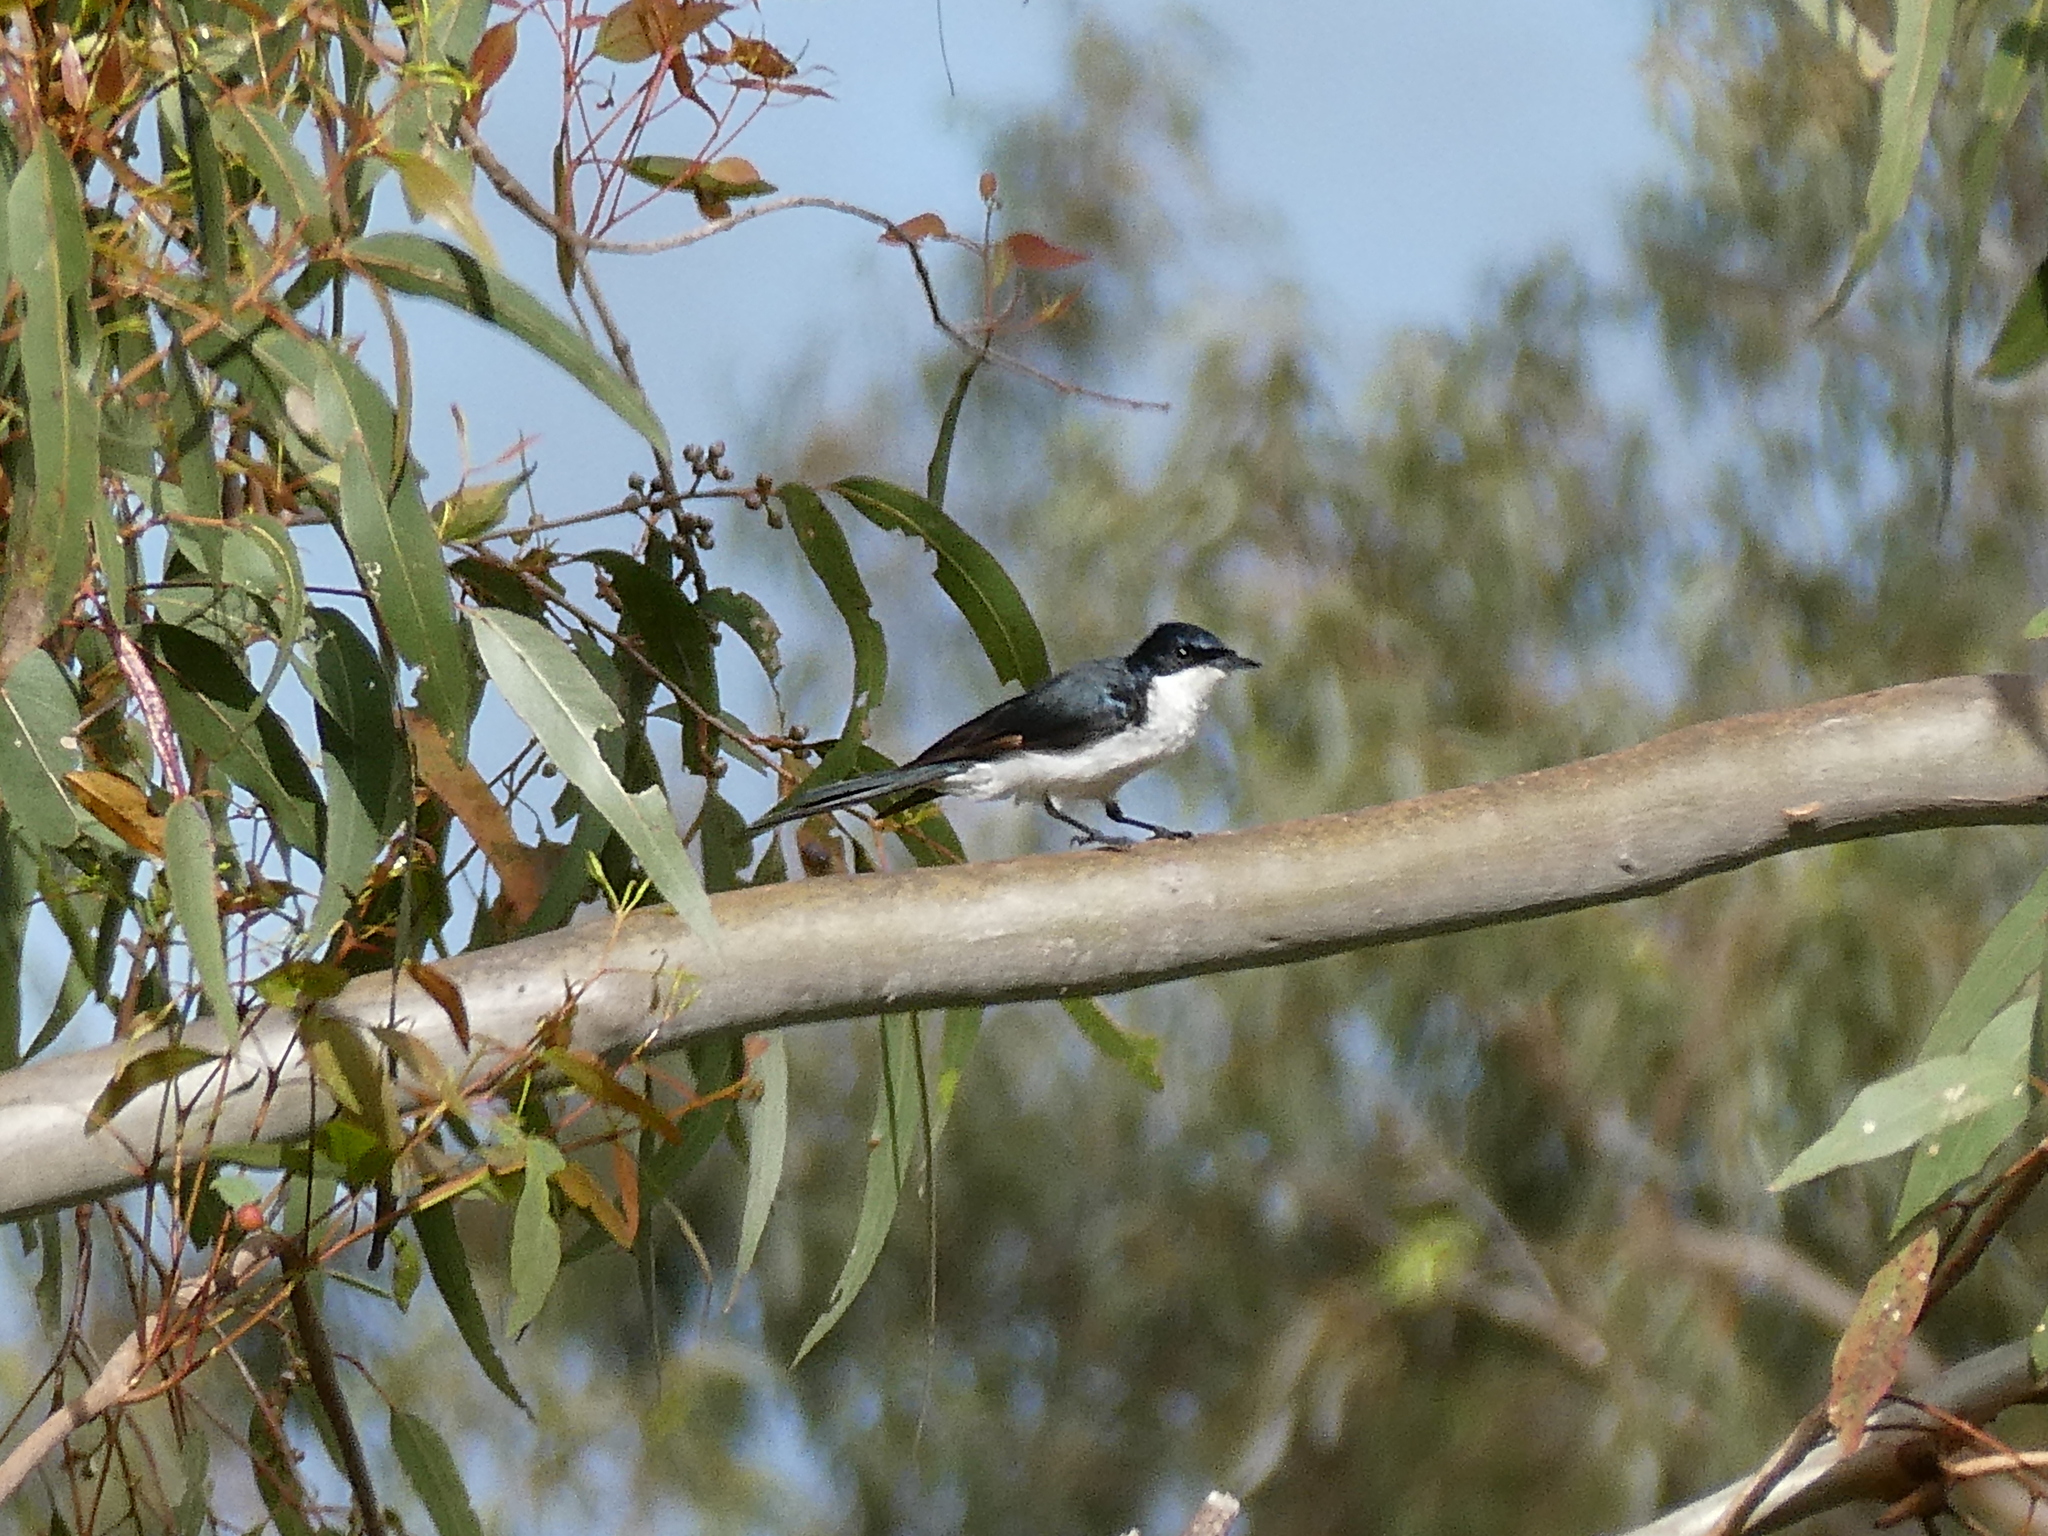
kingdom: Animalia
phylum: Chordata
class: Aves
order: Passeriformes
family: Monarchidae
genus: Myiagra
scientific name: Myiagra inquieta
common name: Restless flycatcher
